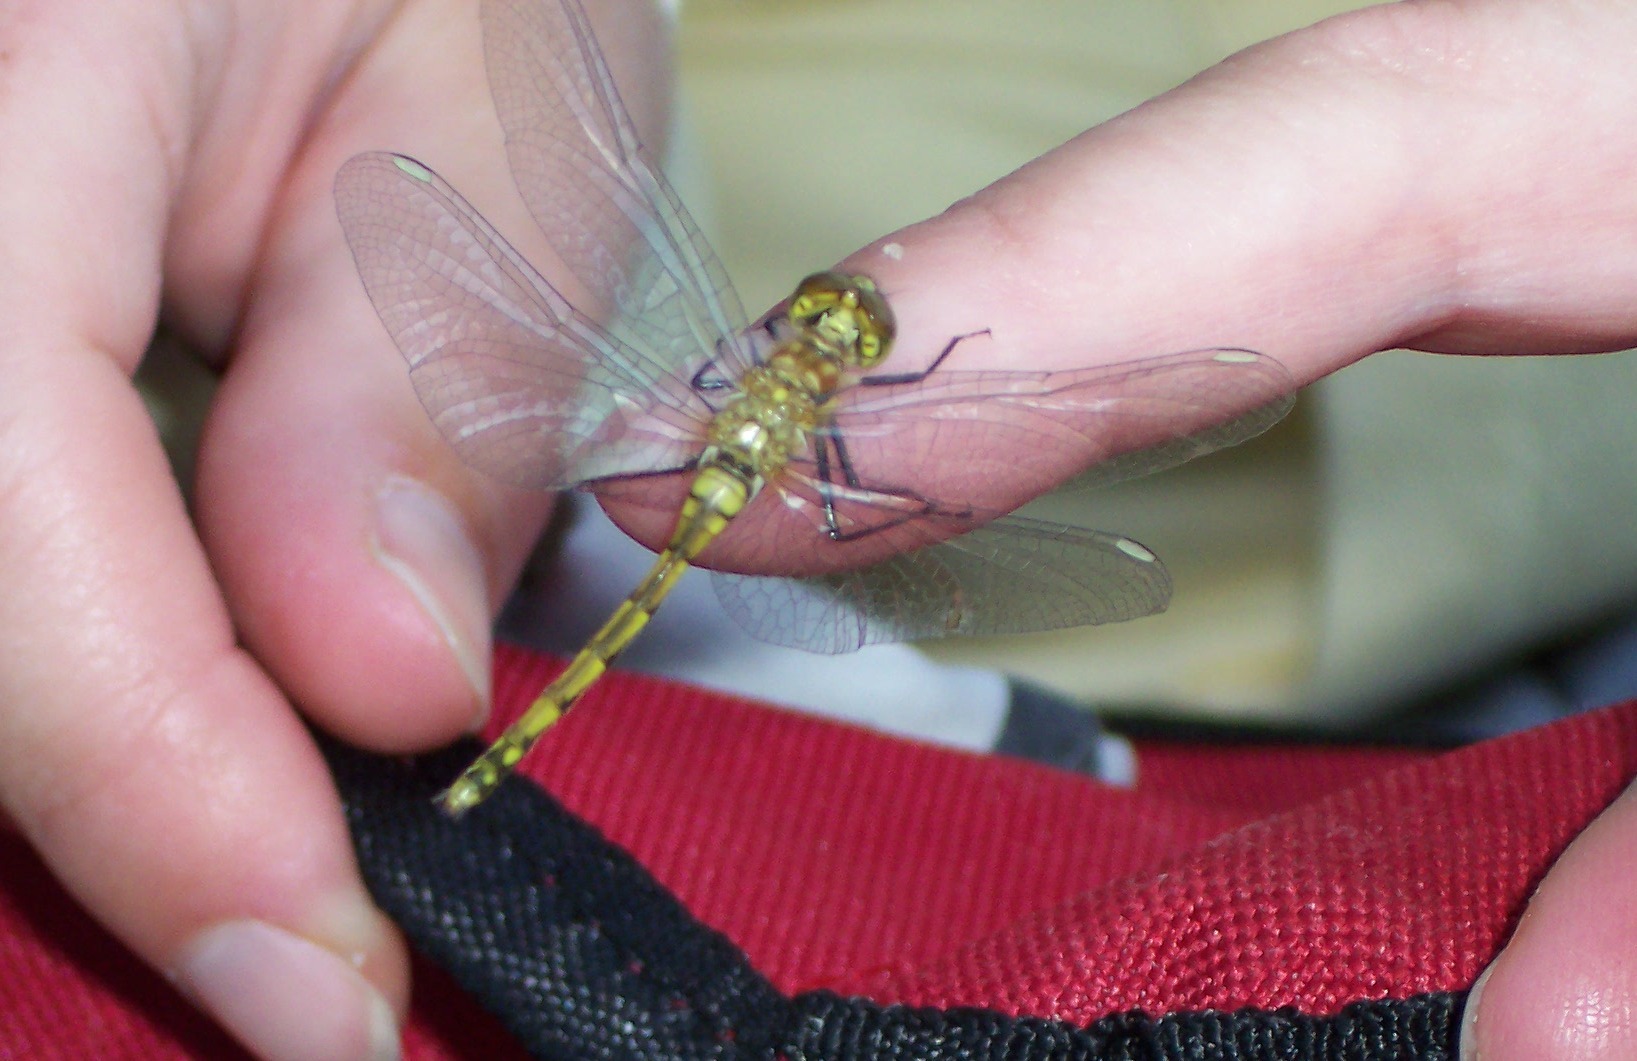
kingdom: Animalia
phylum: Arthropoda
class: Insecta
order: Odonata
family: Libellulidae
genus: Sympetrum
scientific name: Sympetrum danae
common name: Black darter
